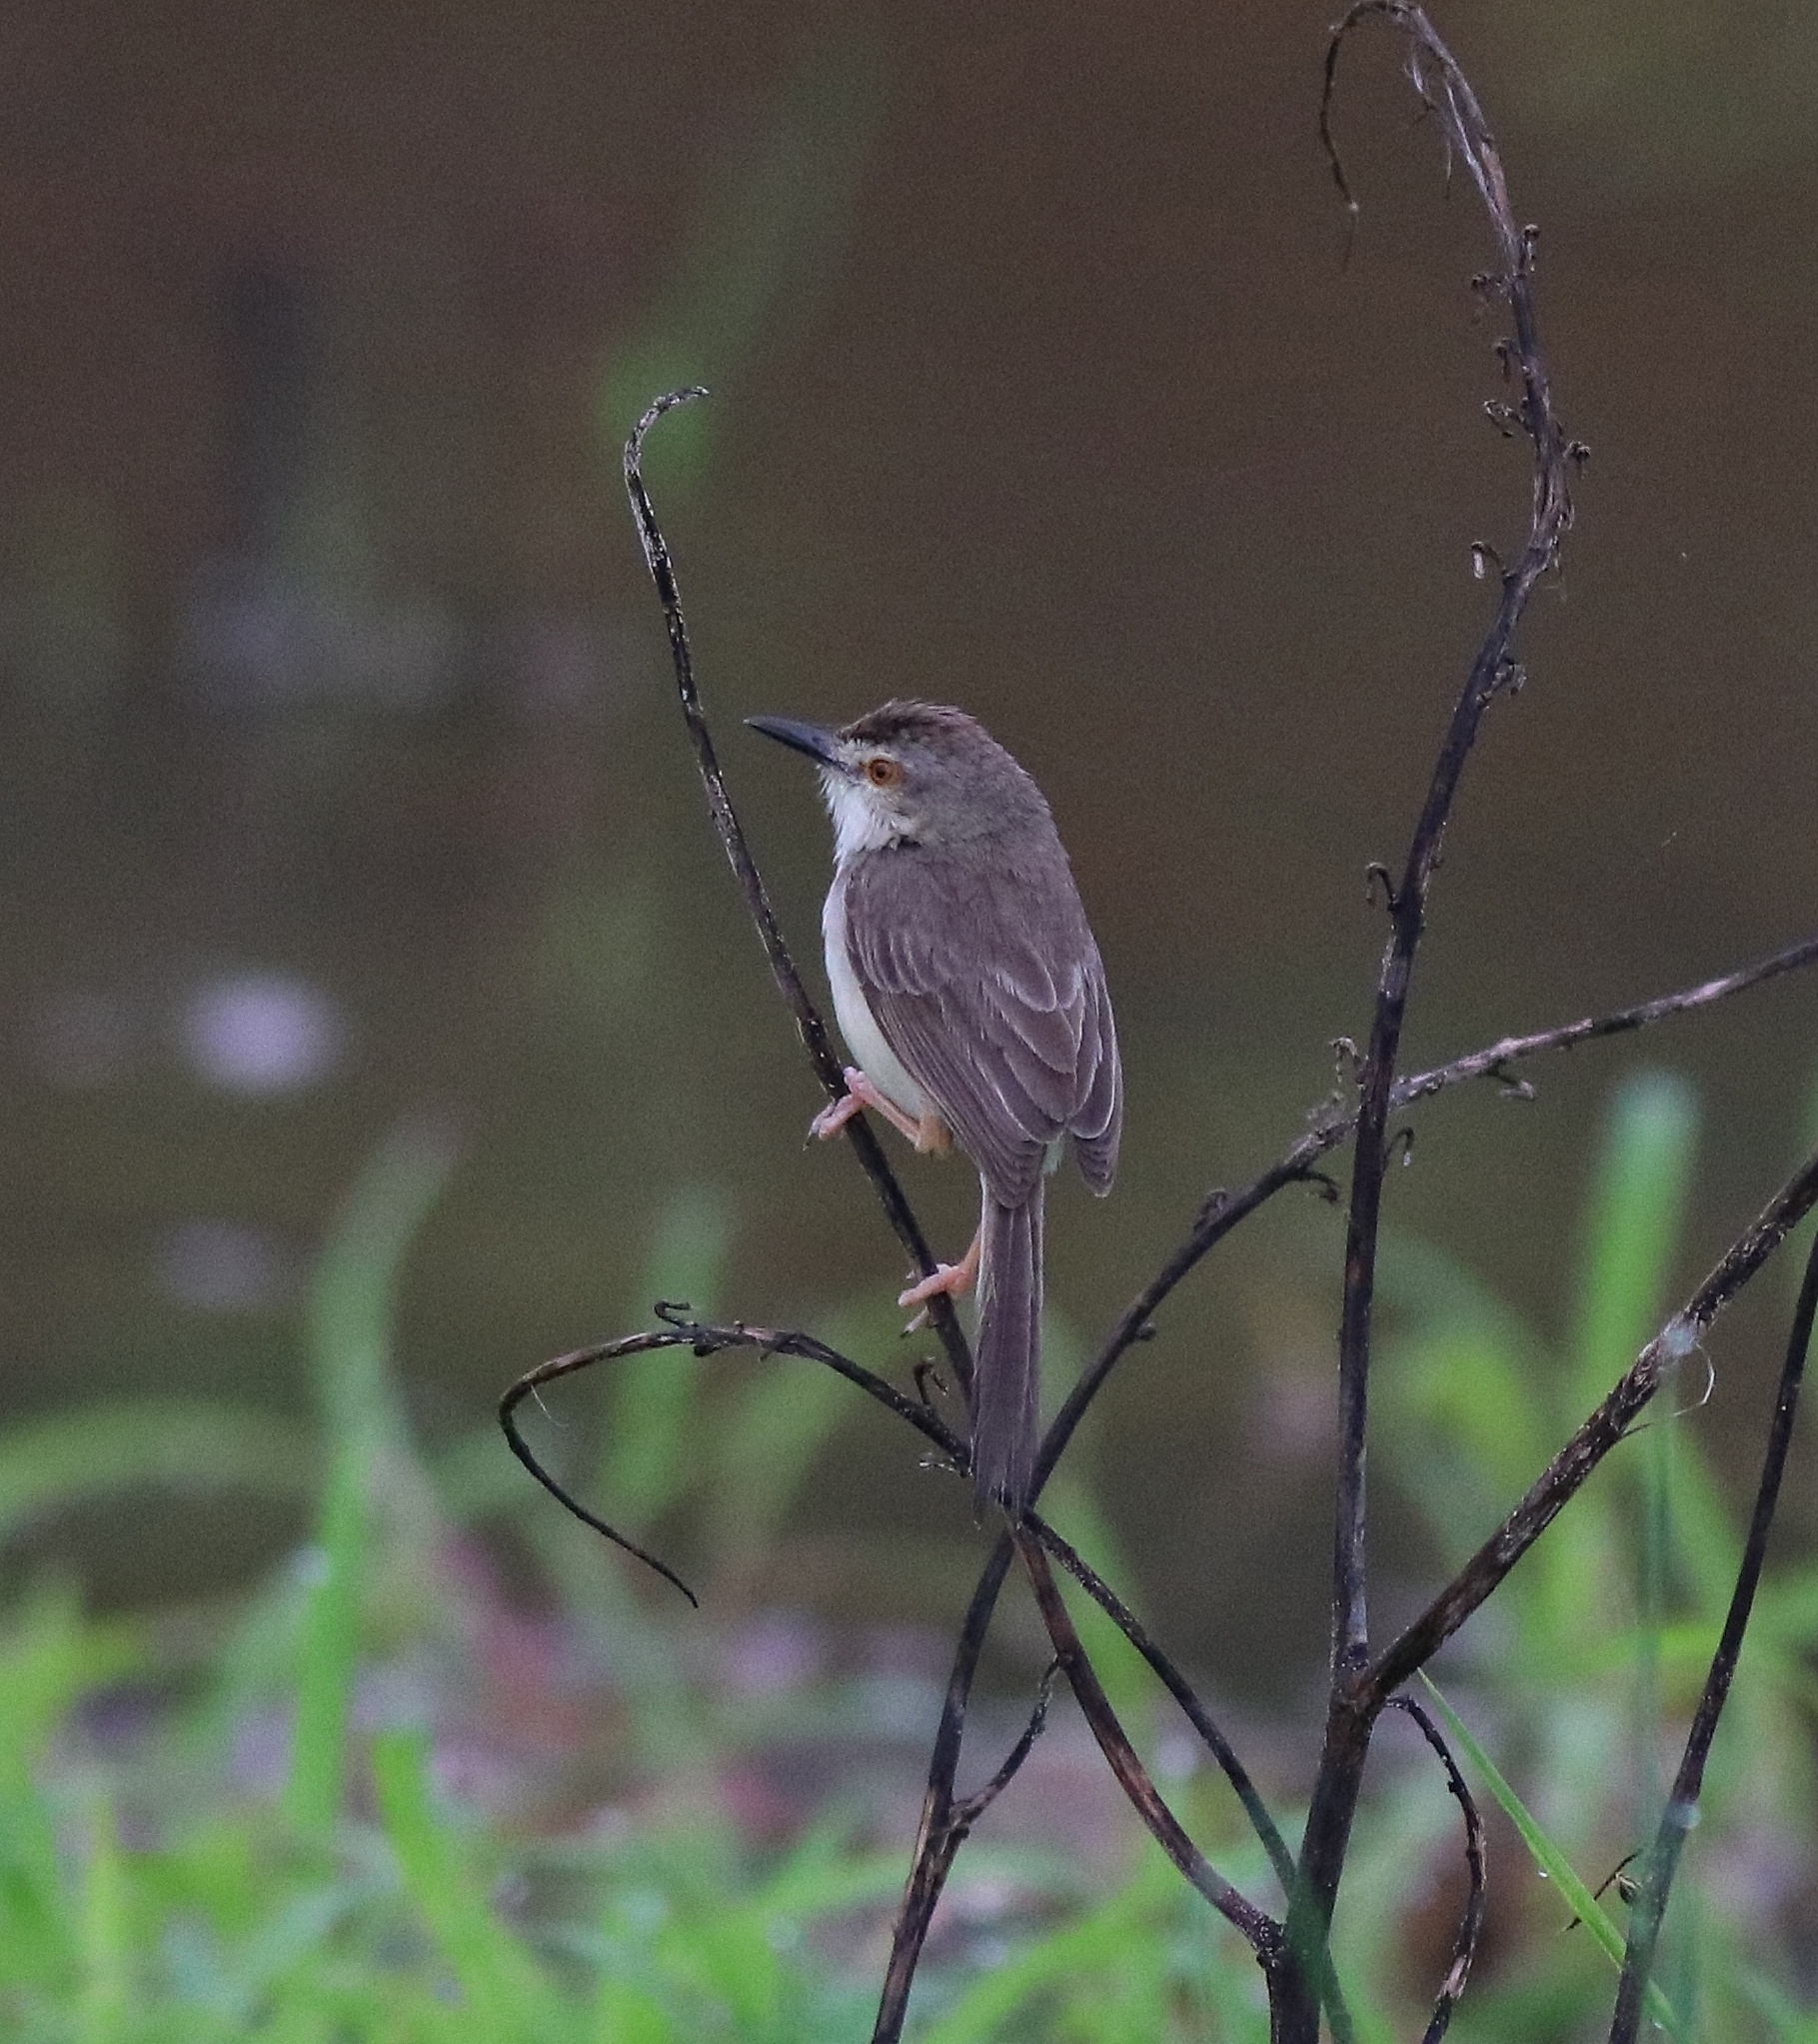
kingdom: Animalia
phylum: Chordata
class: Aves
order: Passeriformes
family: Cisticolidae
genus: Prinia
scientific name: Prinia inornata
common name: Plain prinia
